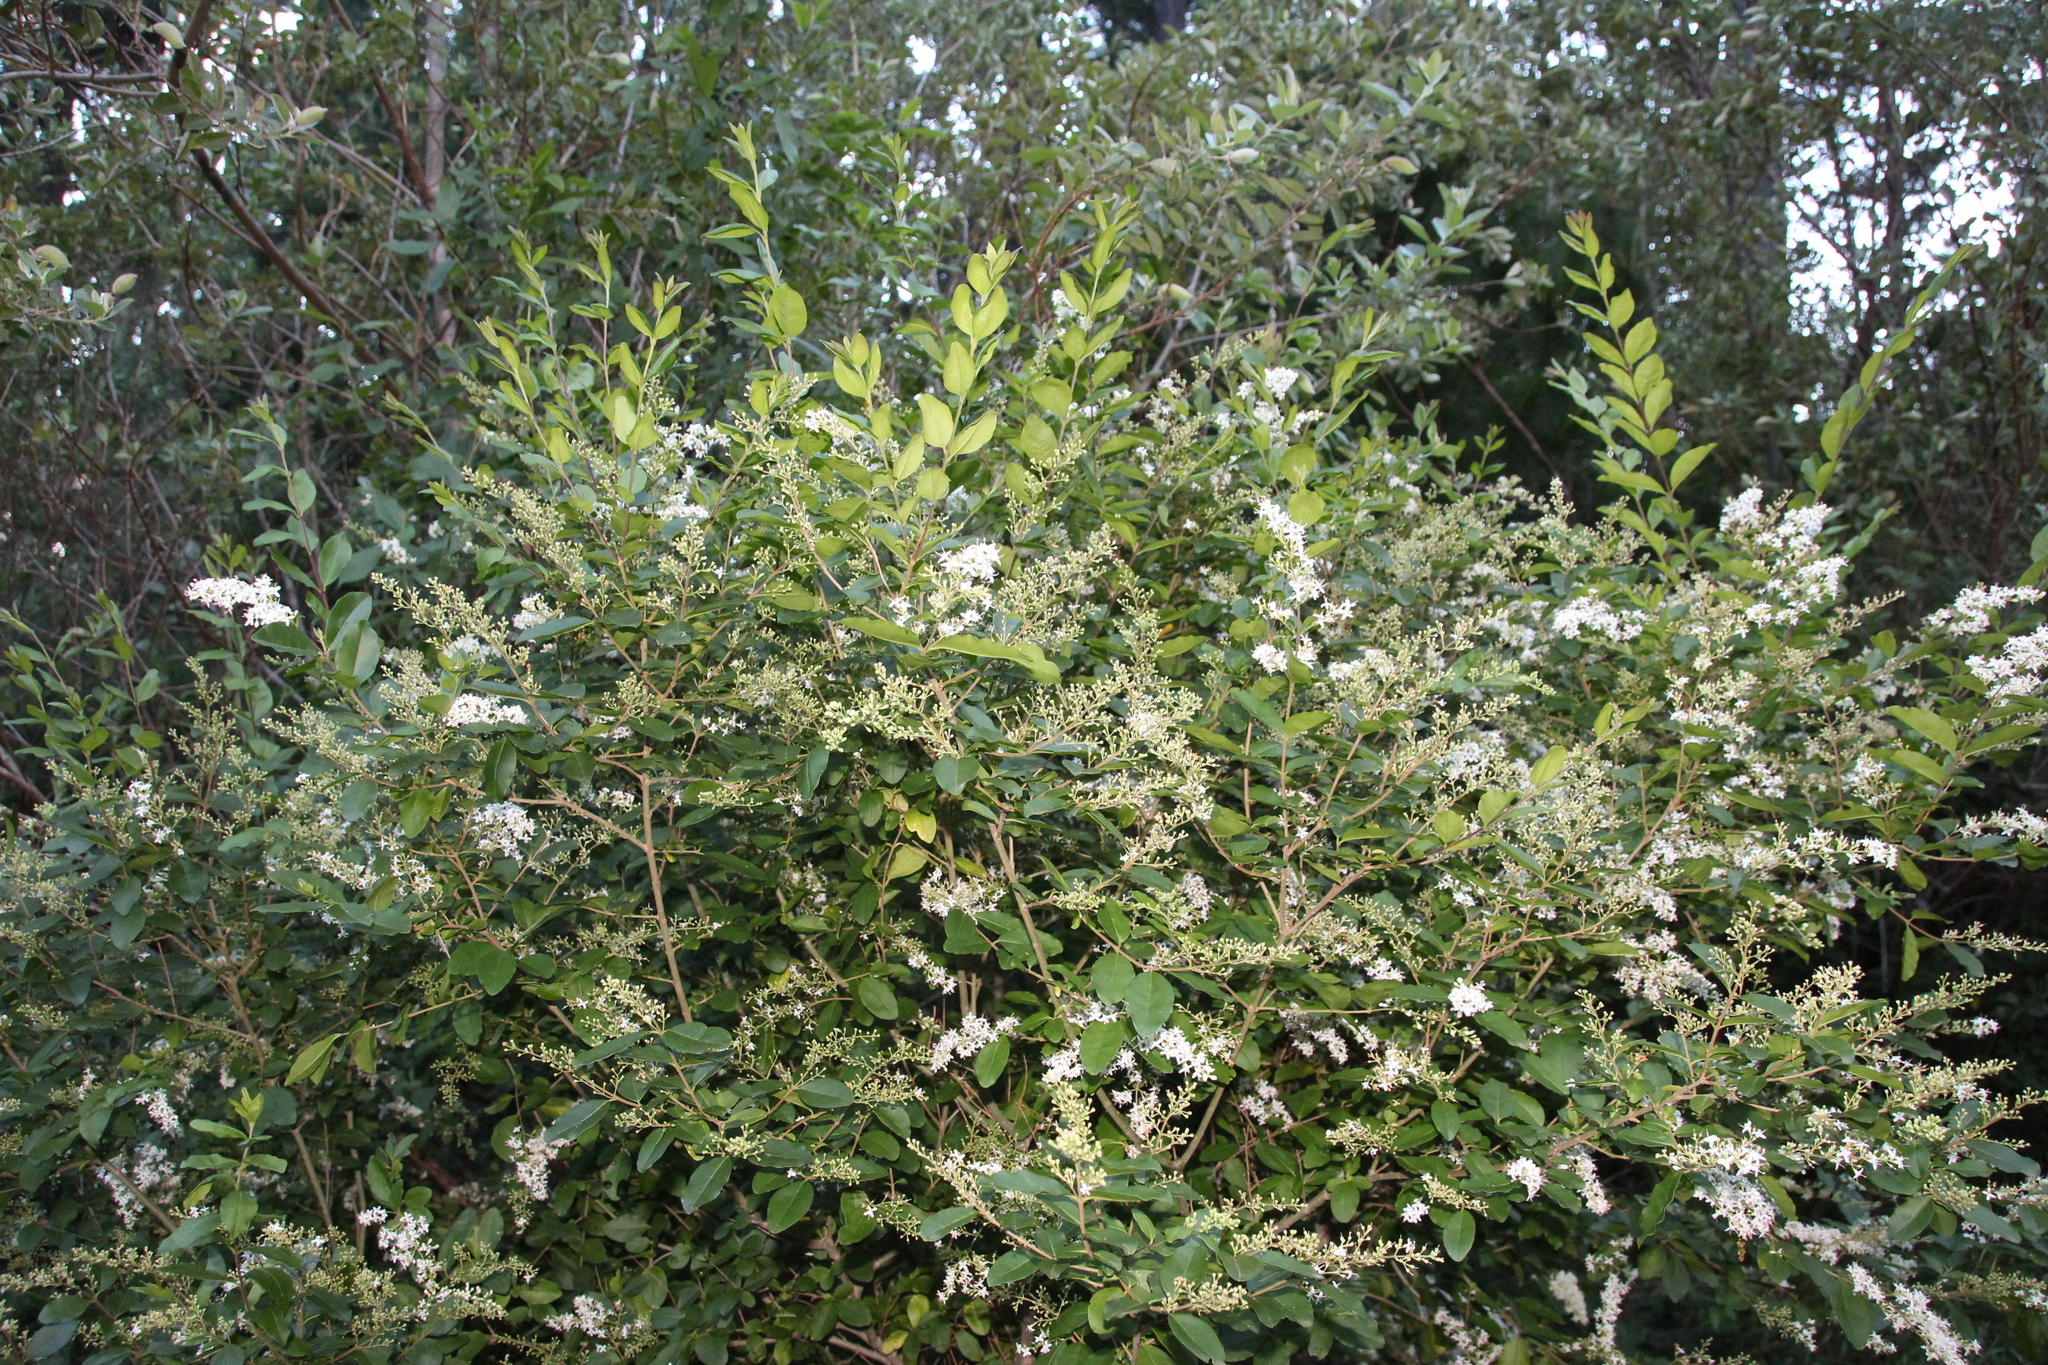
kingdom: Plantae
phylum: Tracheophyta
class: Magnoliopsida
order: Lamiales
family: Oleaceae
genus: Ligustrum
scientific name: Ligustrum sinense
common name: Chinese privet
